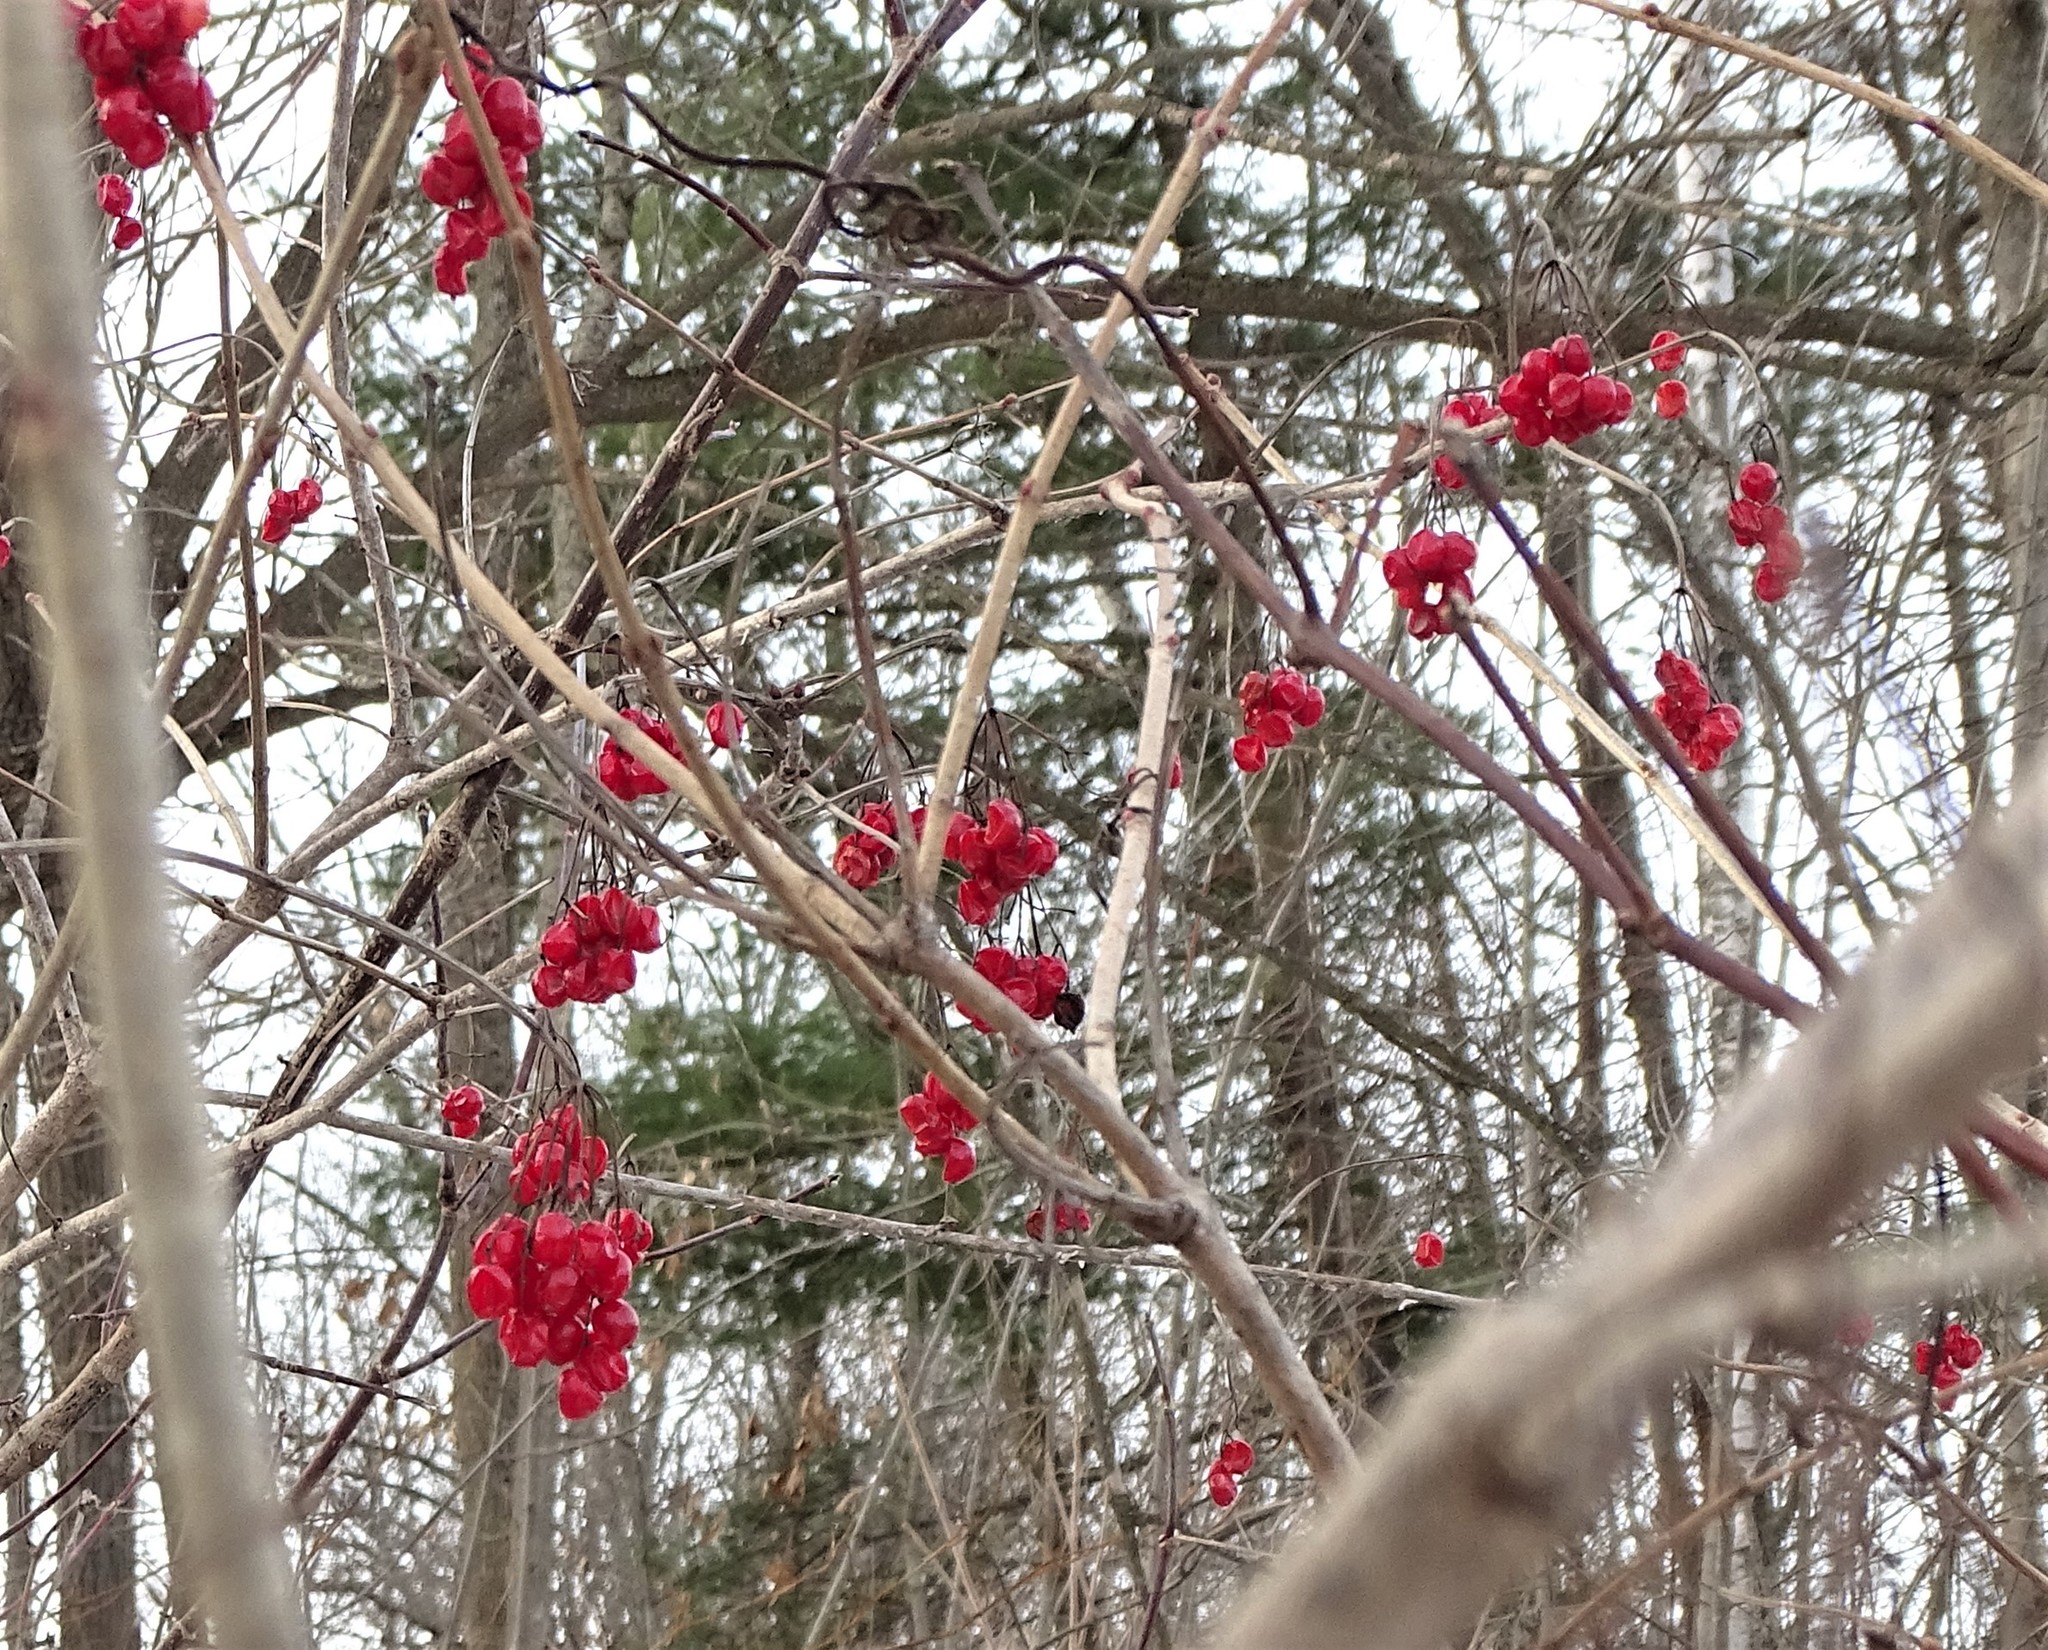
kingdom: Plantae
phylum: Tracheophyta
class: Magnoliopsida
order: Dipsacales
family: Viburnaceae
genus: Viburnum
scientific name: Viburnum opulus
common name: Guelder-rose
